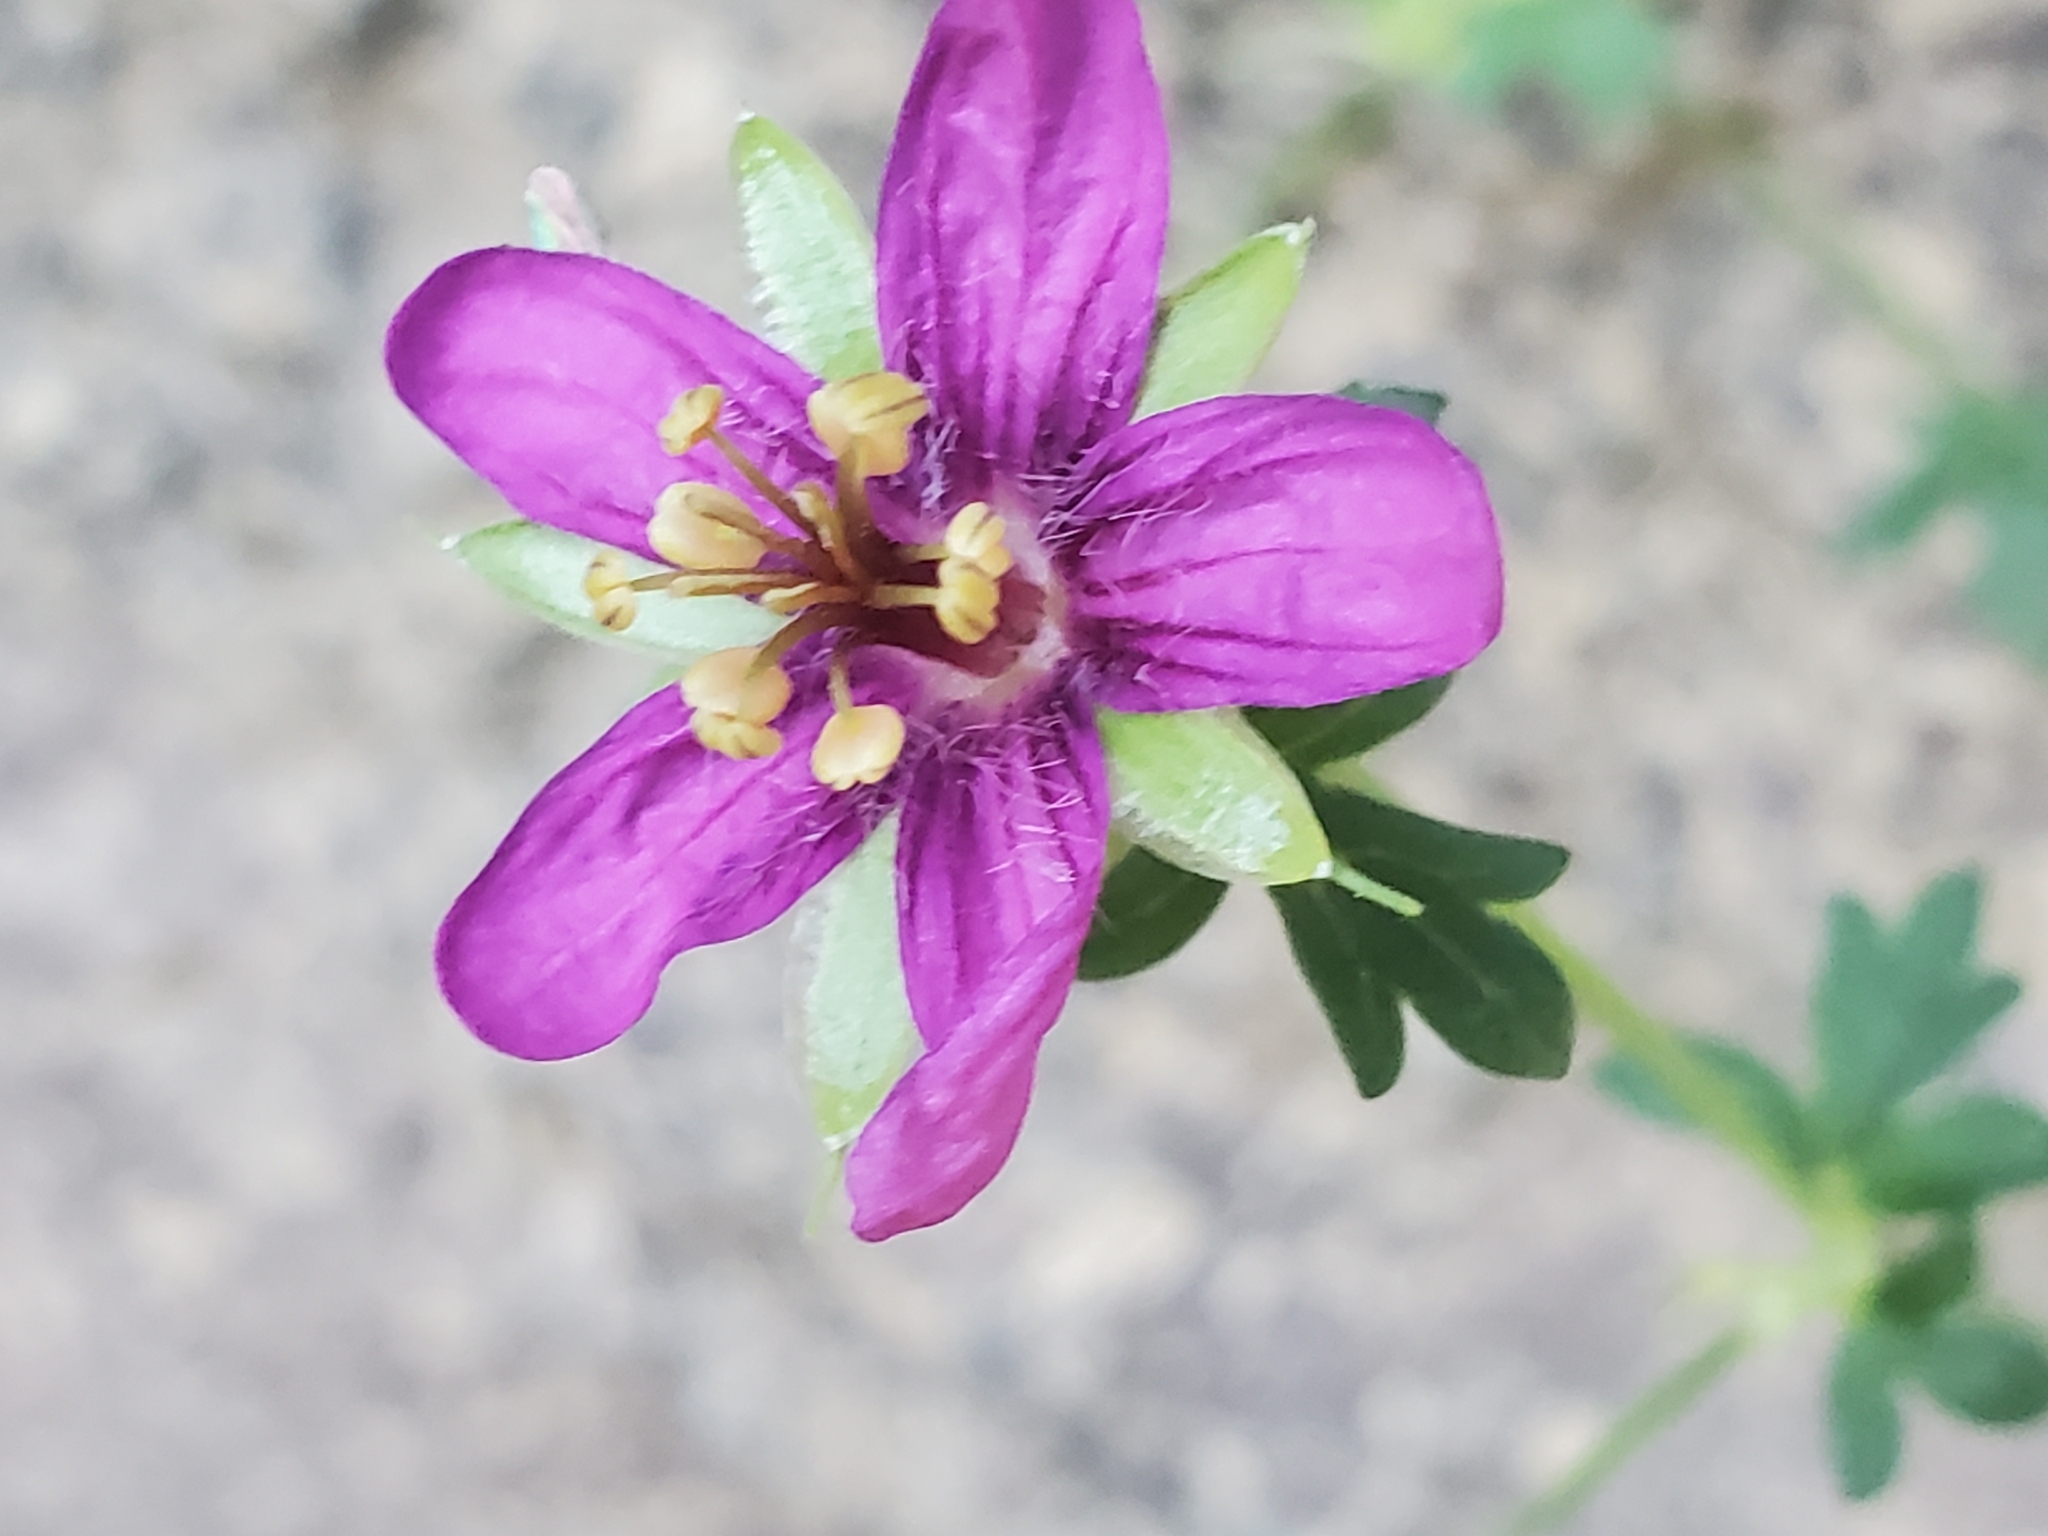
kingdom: Plantae
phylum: Tracheophyta
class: Magnoliopsida
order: Geraniales
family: Geraniaceae
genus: Geranium
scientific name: Geranium caespitosum
